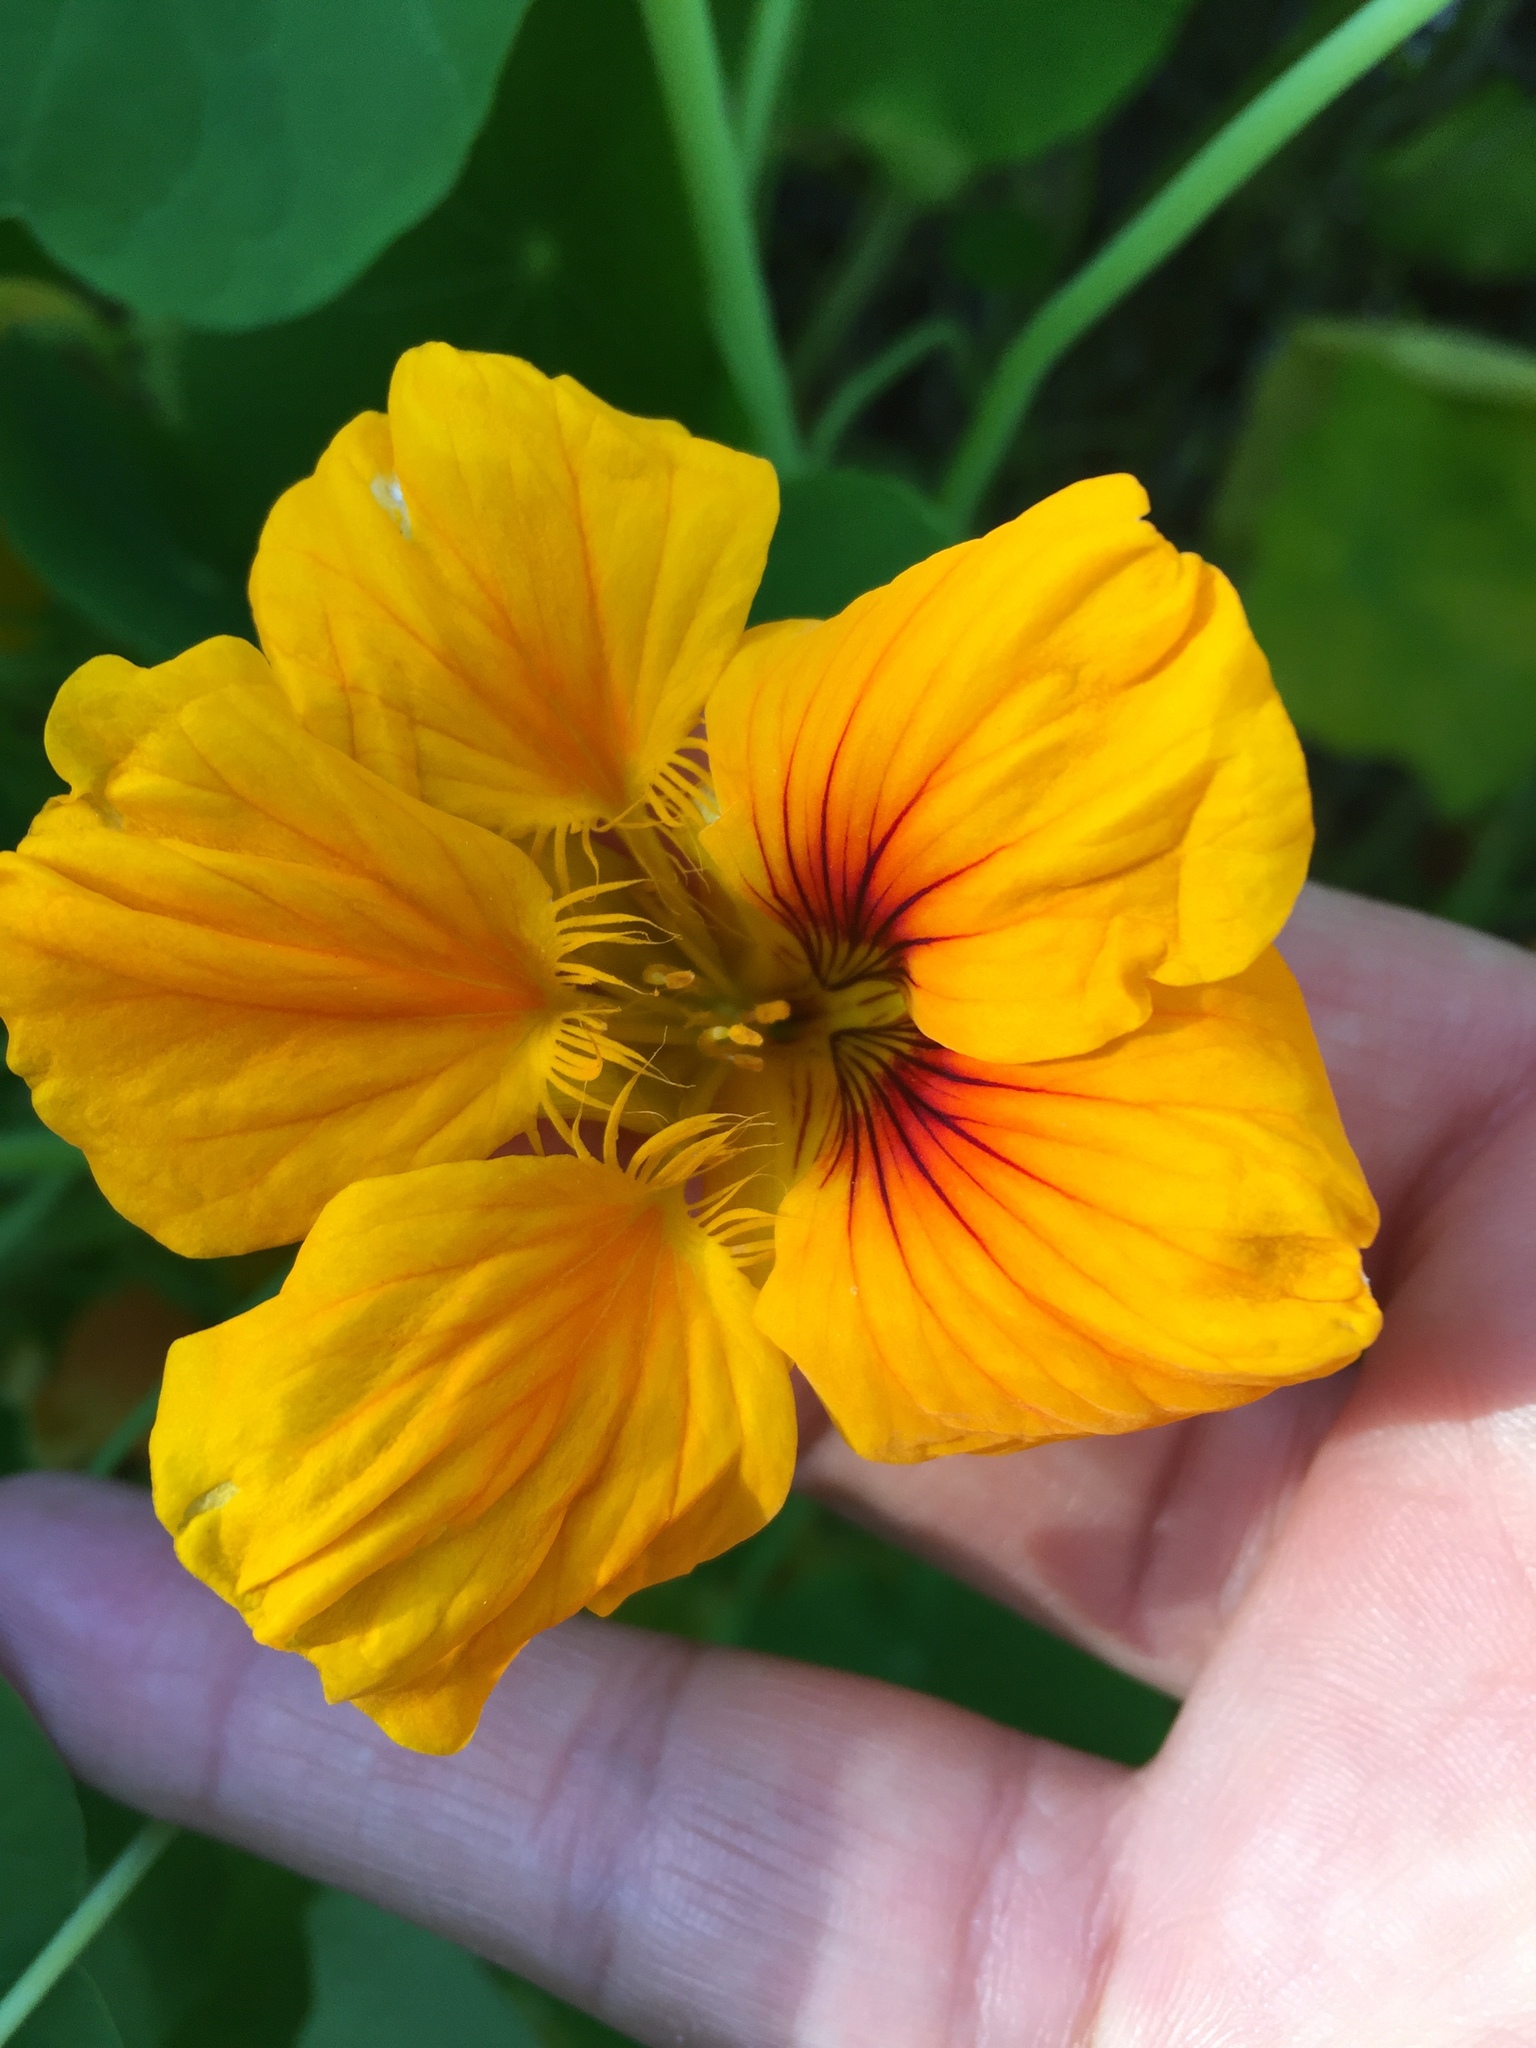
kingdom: Plantae
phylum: Tracheophyta
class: Magnoliopsida
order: Brassicales
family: Tropaeolaceae
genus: Tropaeolum
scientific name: Tropaeolum majus
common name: Nasturtium
